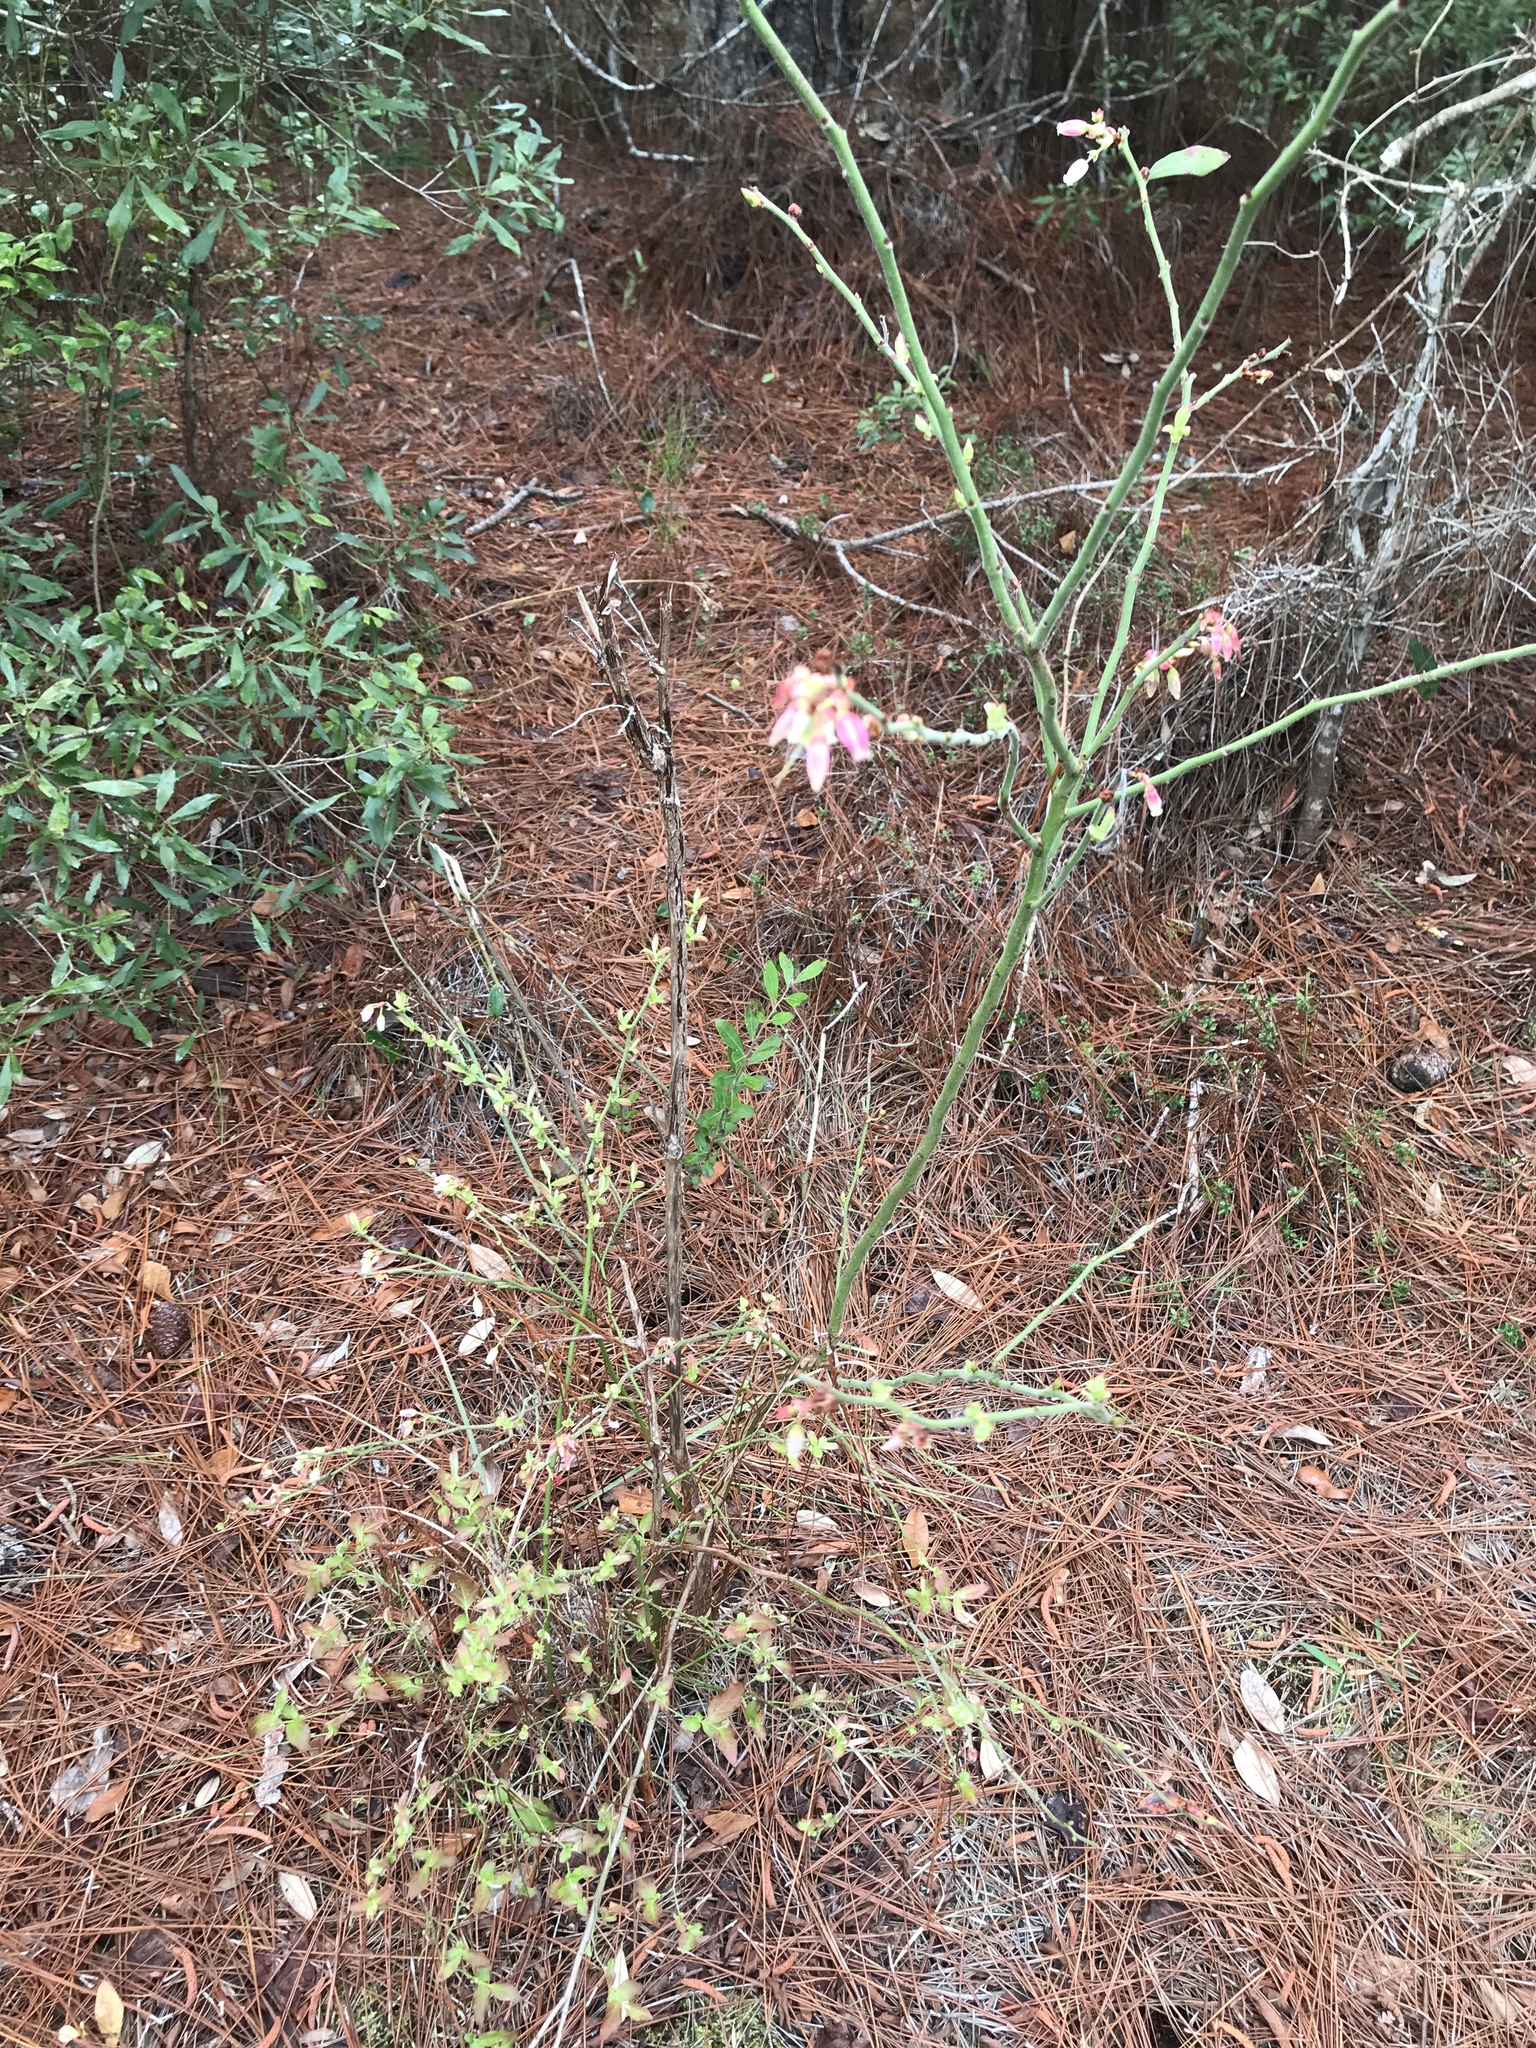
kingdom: Plantae
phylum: Tracheophyta
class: Magnoliopsida
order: Ericales
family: Ericaceae
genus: Vaccinium
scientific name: Vaccinium corymbosum
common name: Blueberry
